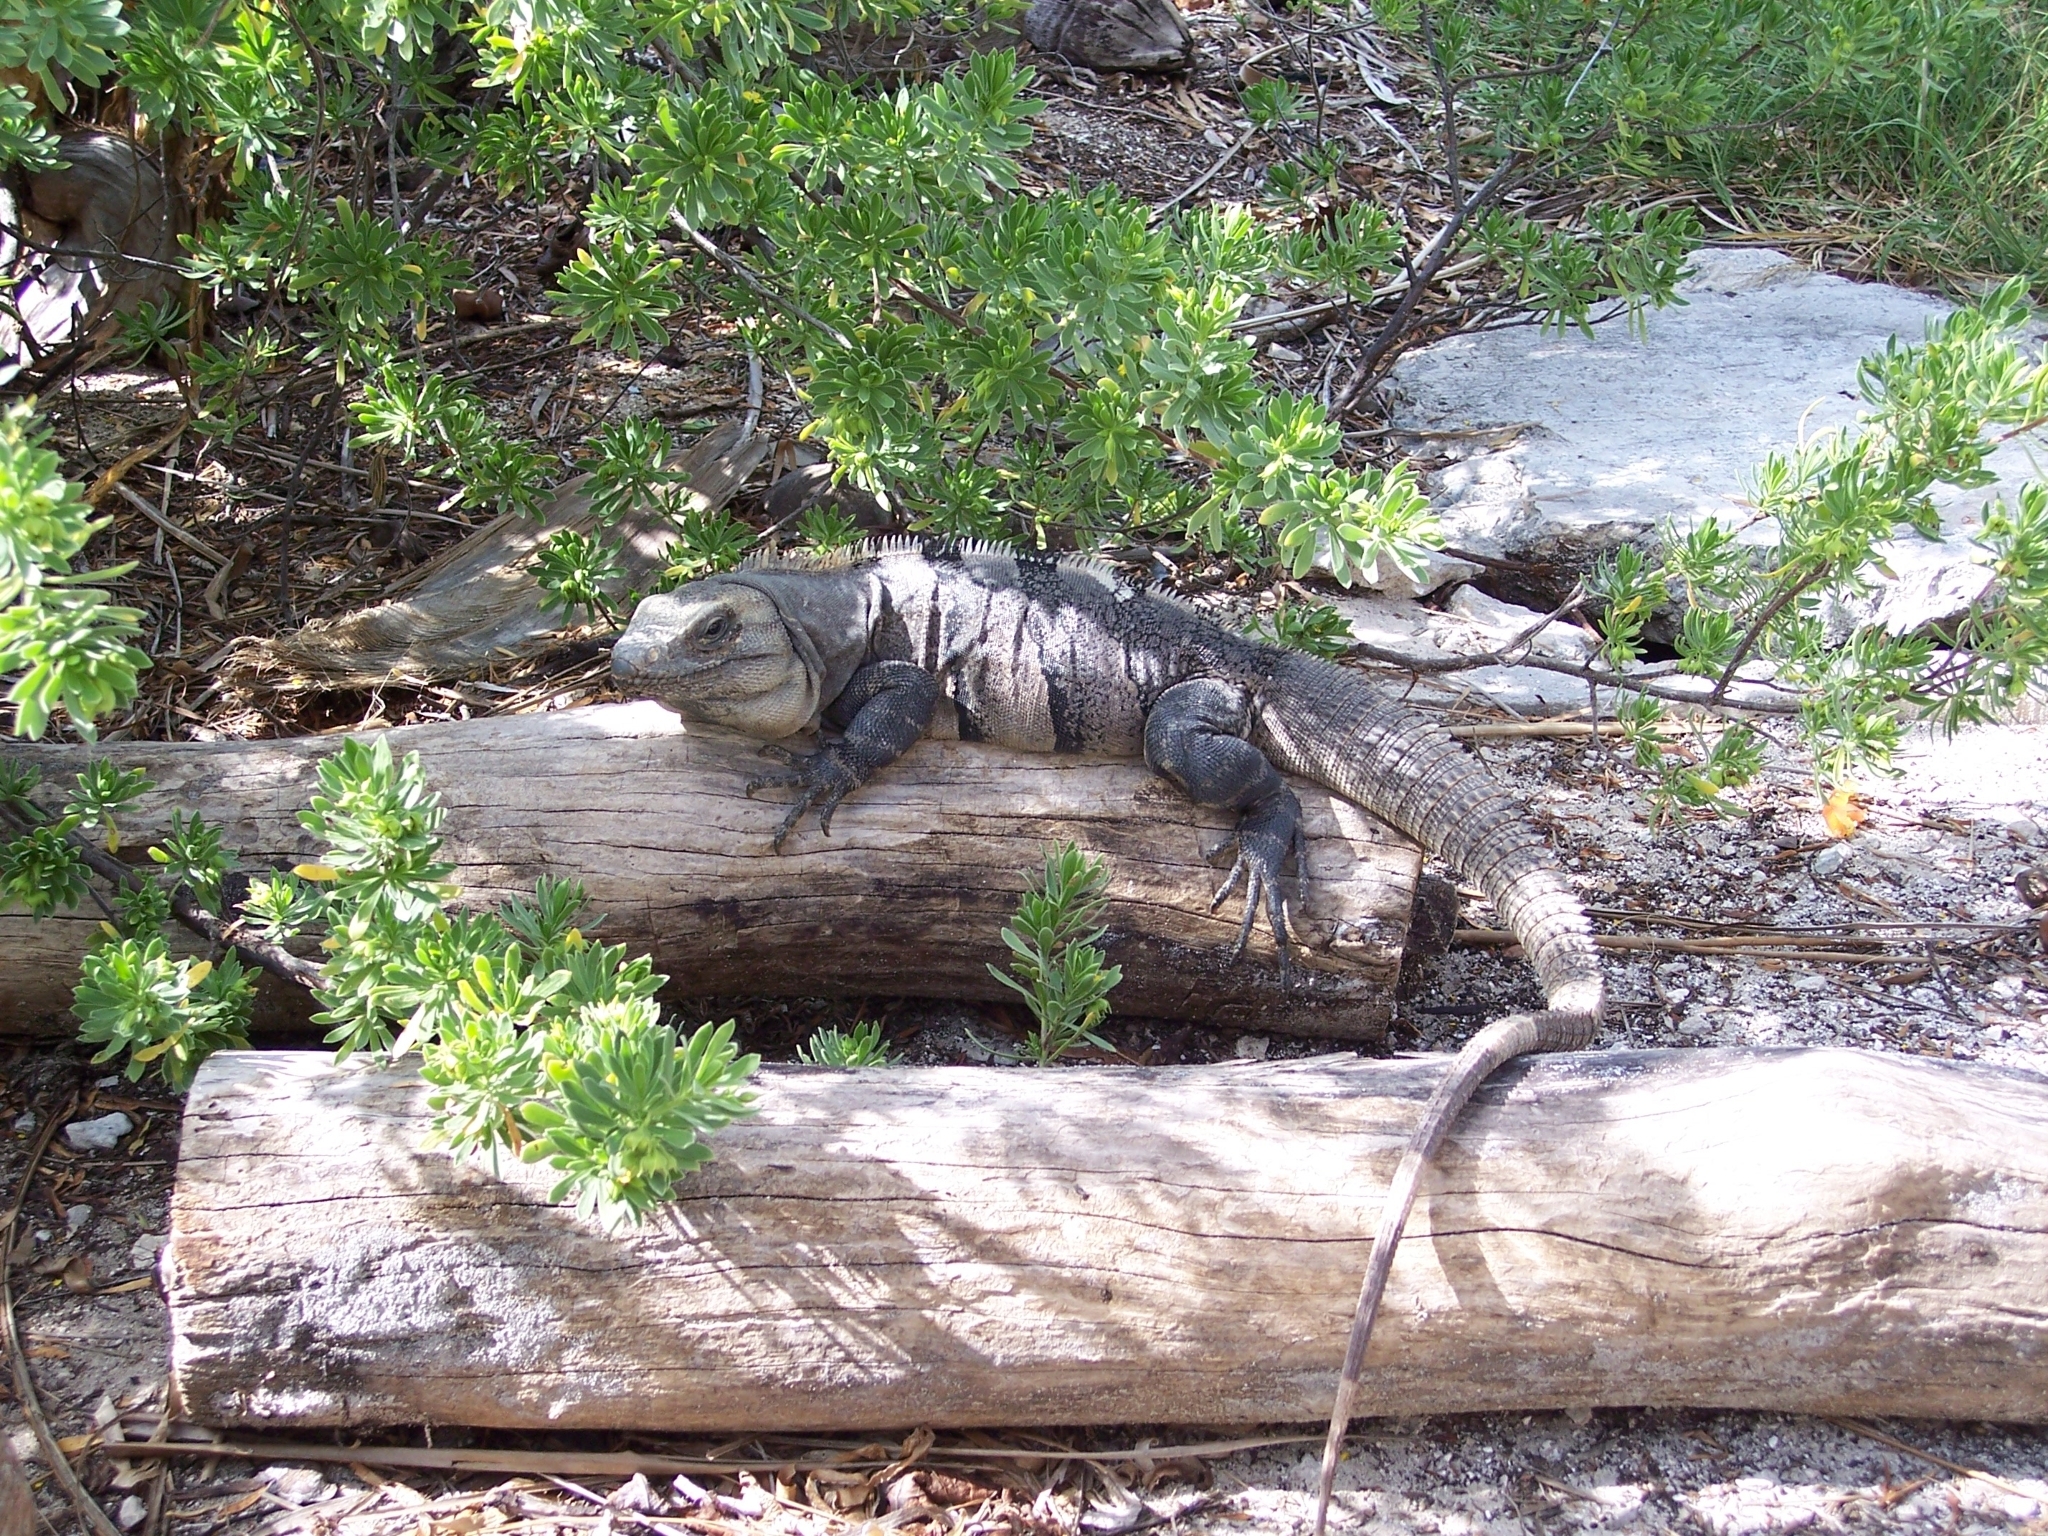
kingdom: Animalia
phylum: Chordata
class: Squamata
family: Iguanidae
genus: Ctenosaura
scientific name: Ctenosaura similis
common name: Black spiny-tailed iguana
